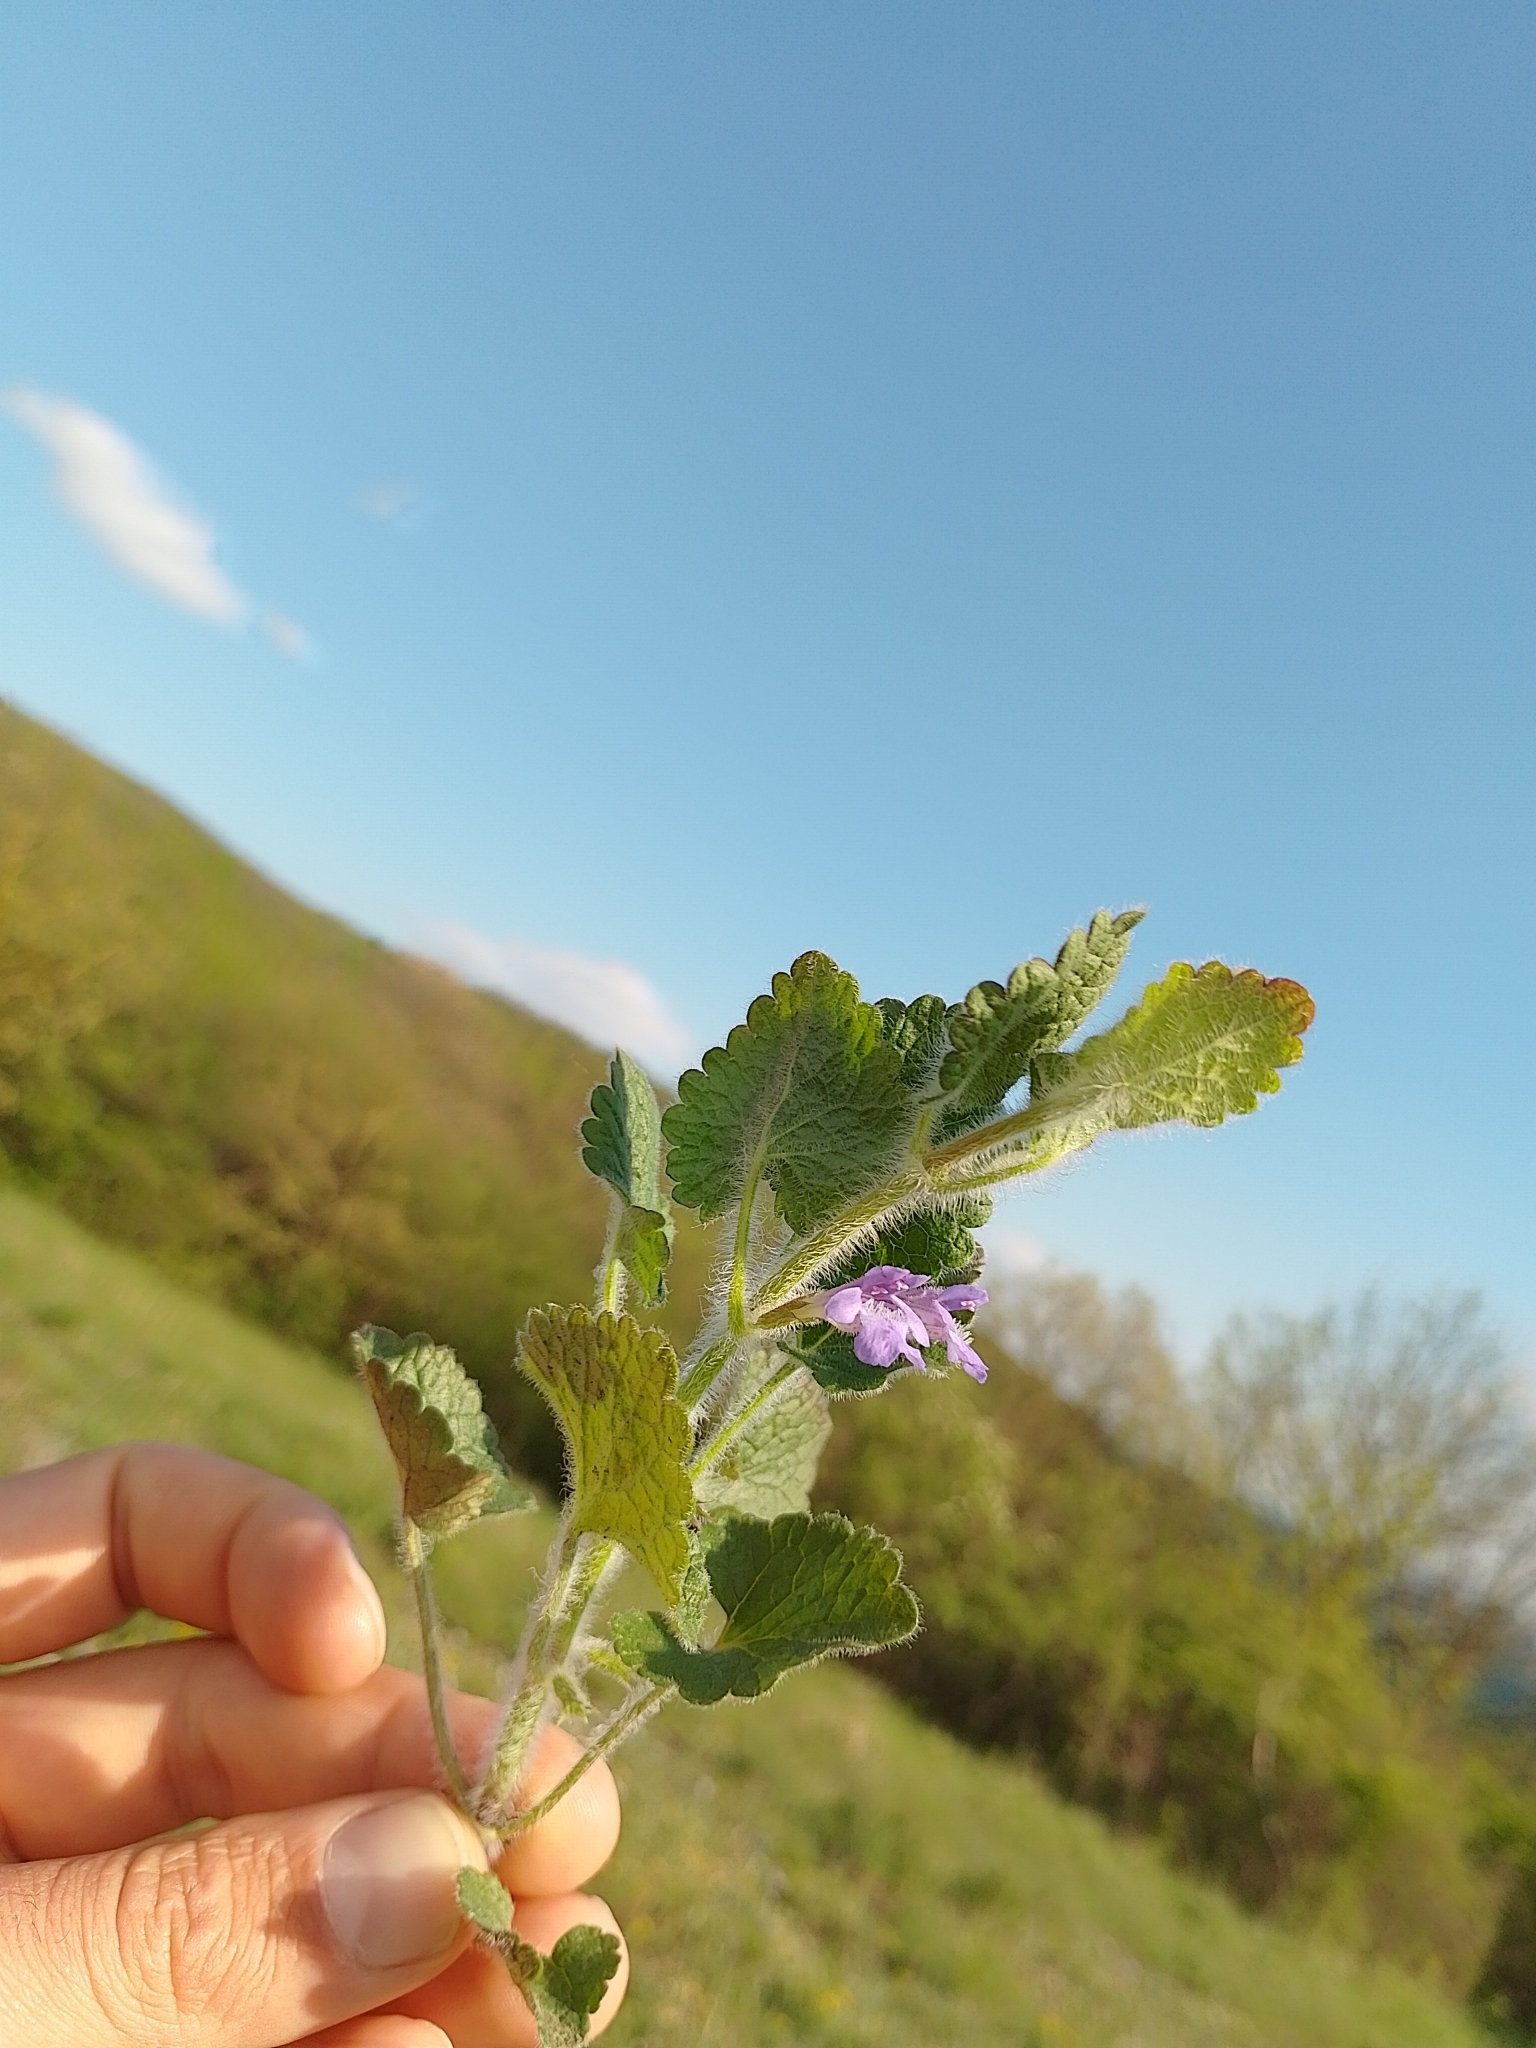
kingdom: Plantae
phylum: Tracheophyta
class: Magnoliopsida
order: Lamiales
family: Lamiaceae
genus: Glechoma
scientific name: Glechoma hirsuta
